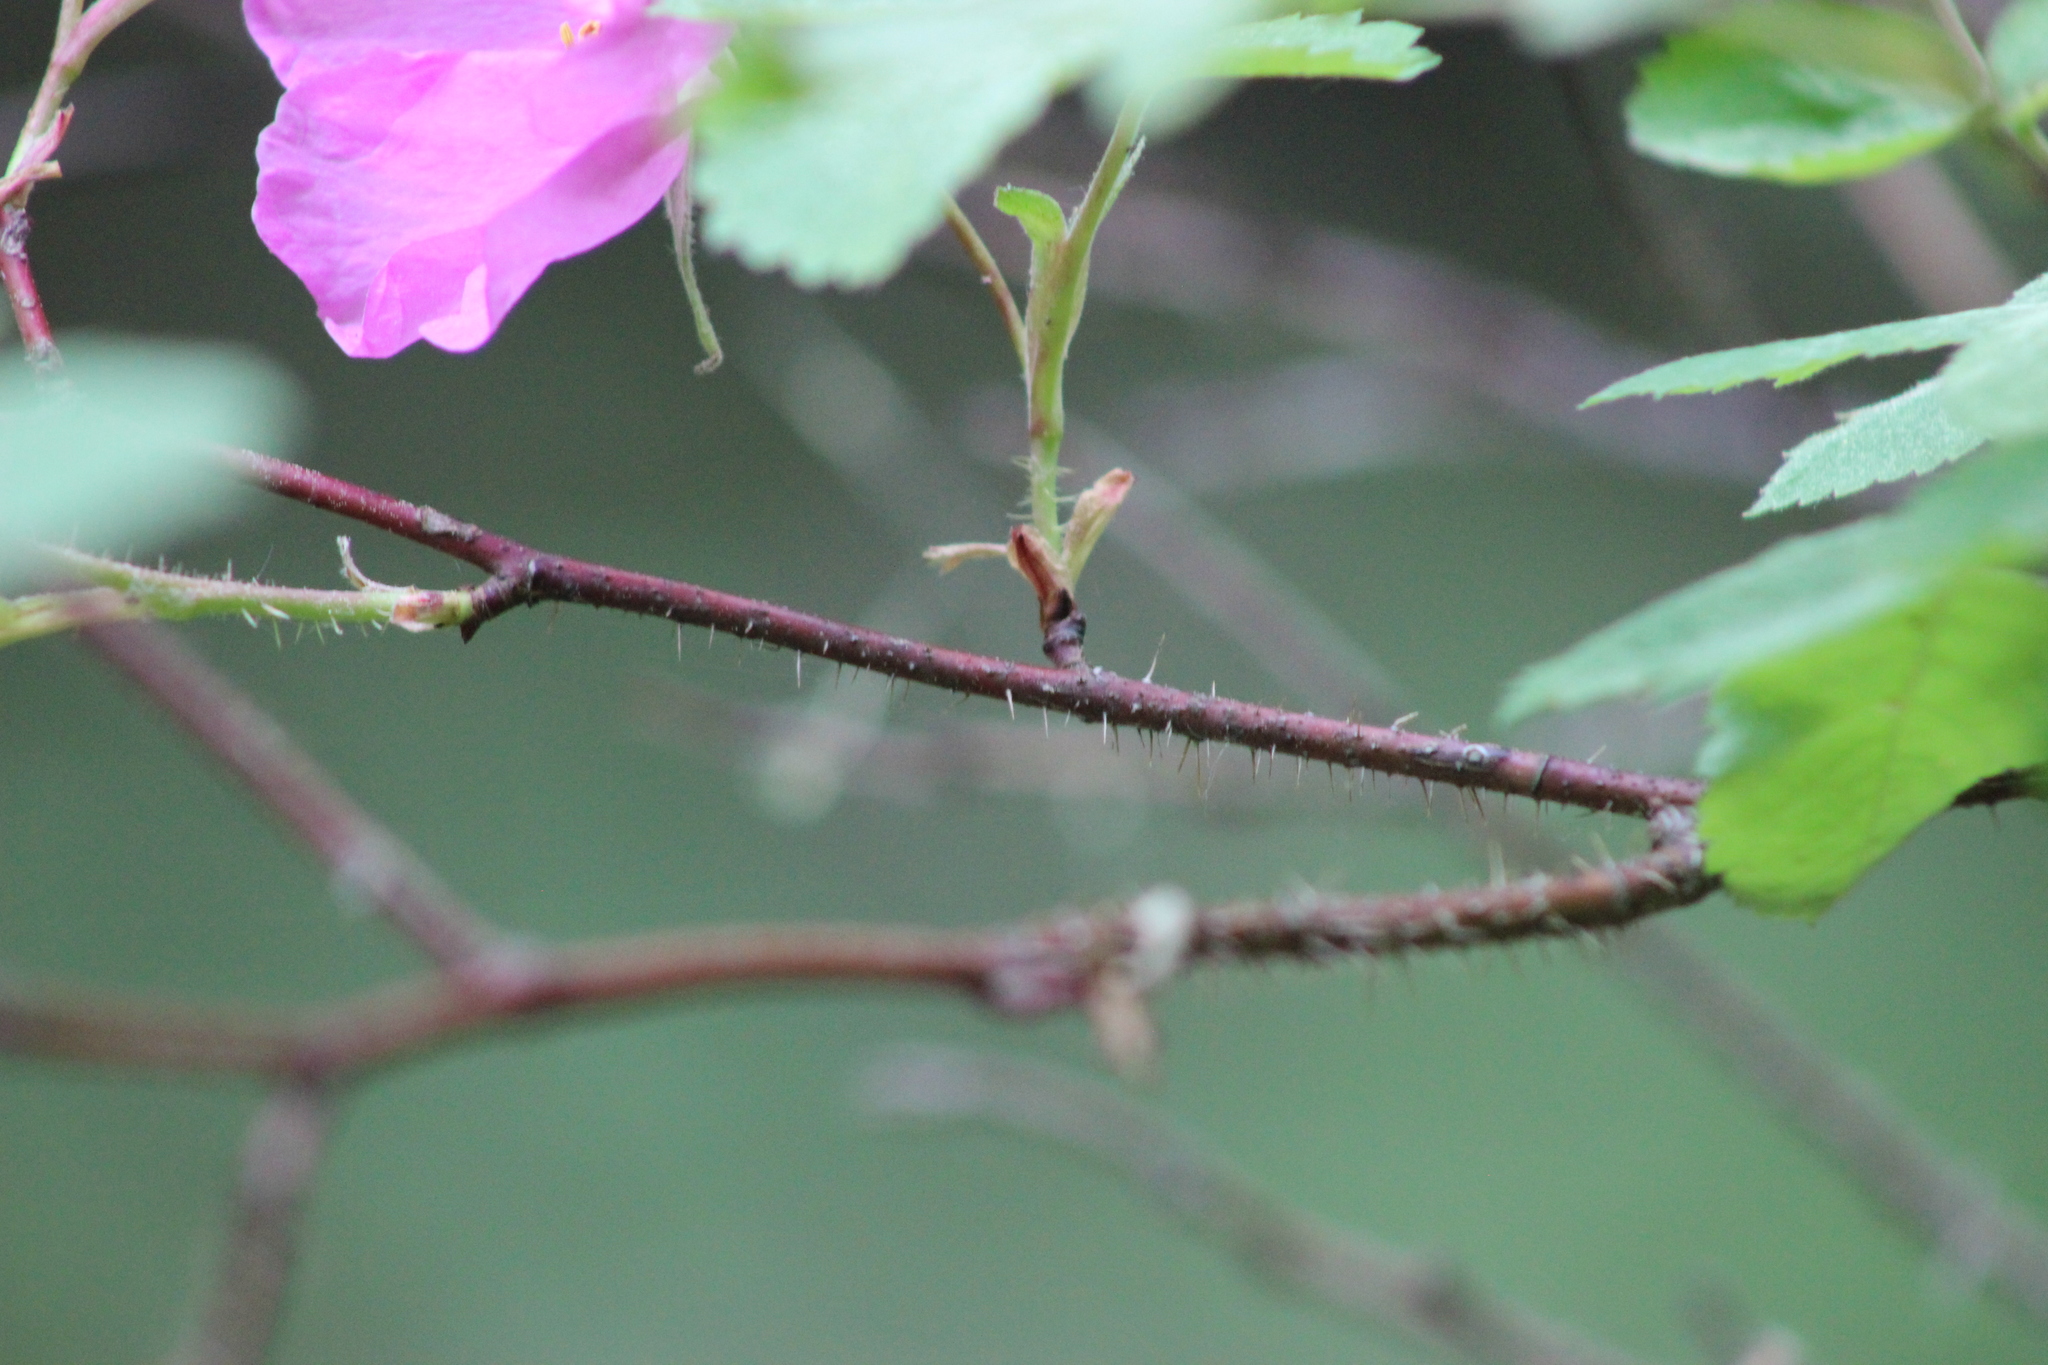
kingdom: Plantae
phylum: Tracheophyta
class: Magnoliopsida
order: Rosales
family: Rosaceae
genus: Rosa
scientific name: Rosa acicularis
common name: Prickly rose
